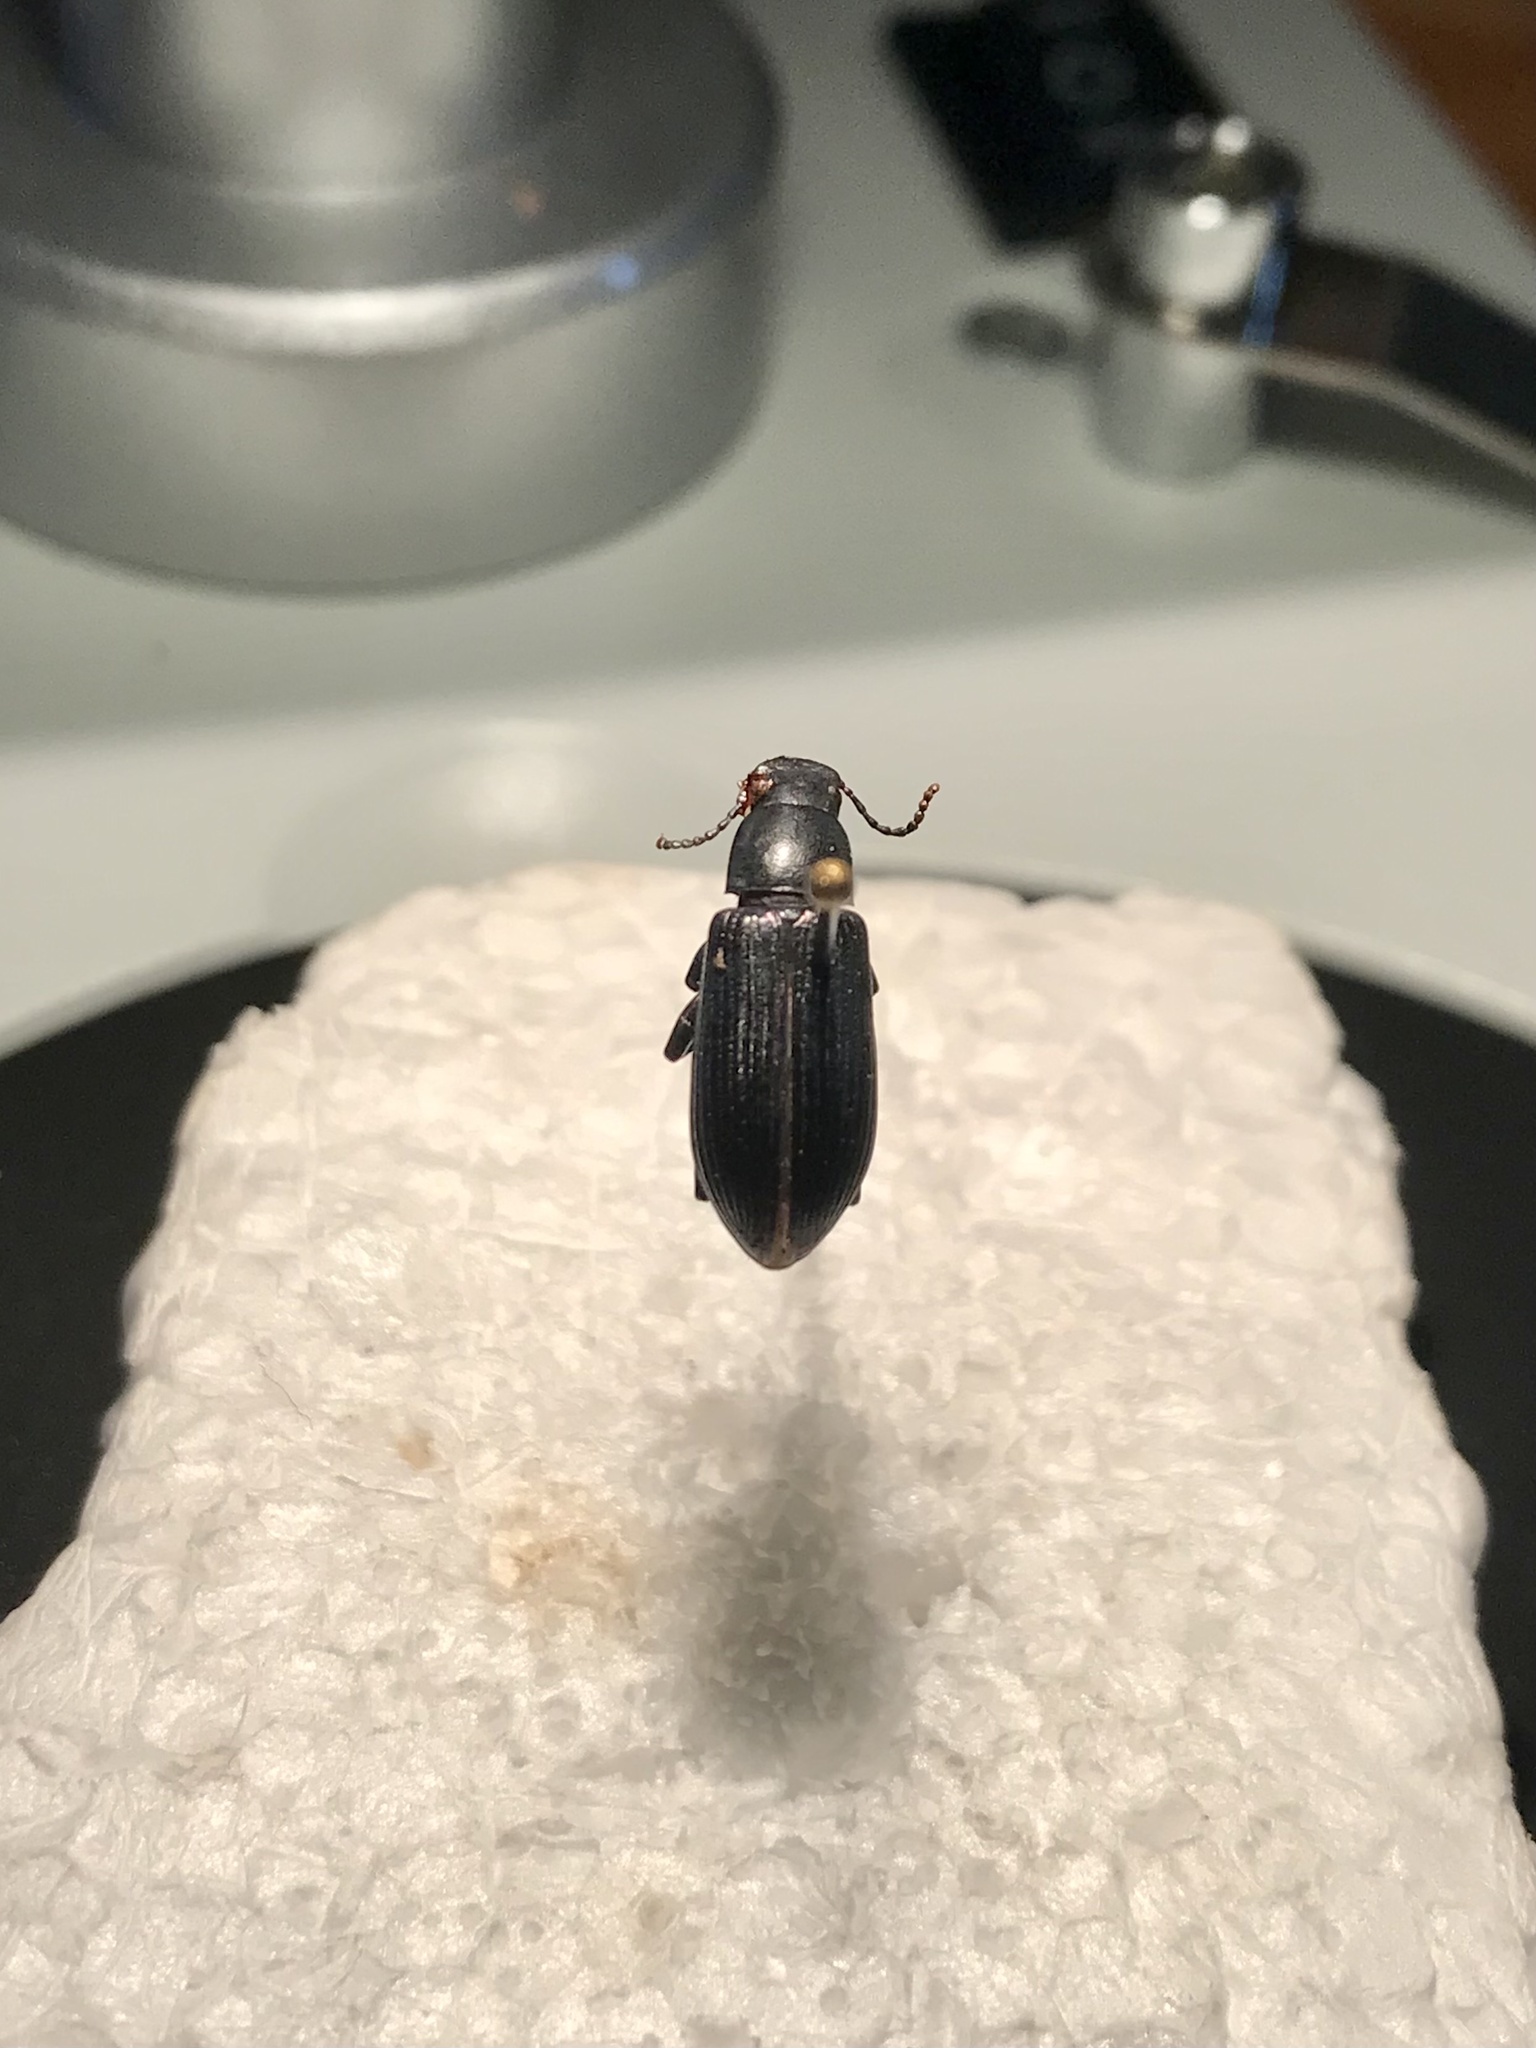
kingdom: Animalia
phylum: Arthropoda
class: Insecta
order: Coleoptera
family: Tenebrionidae
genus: Xylopinus
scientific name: Xylopinus saperdoides
